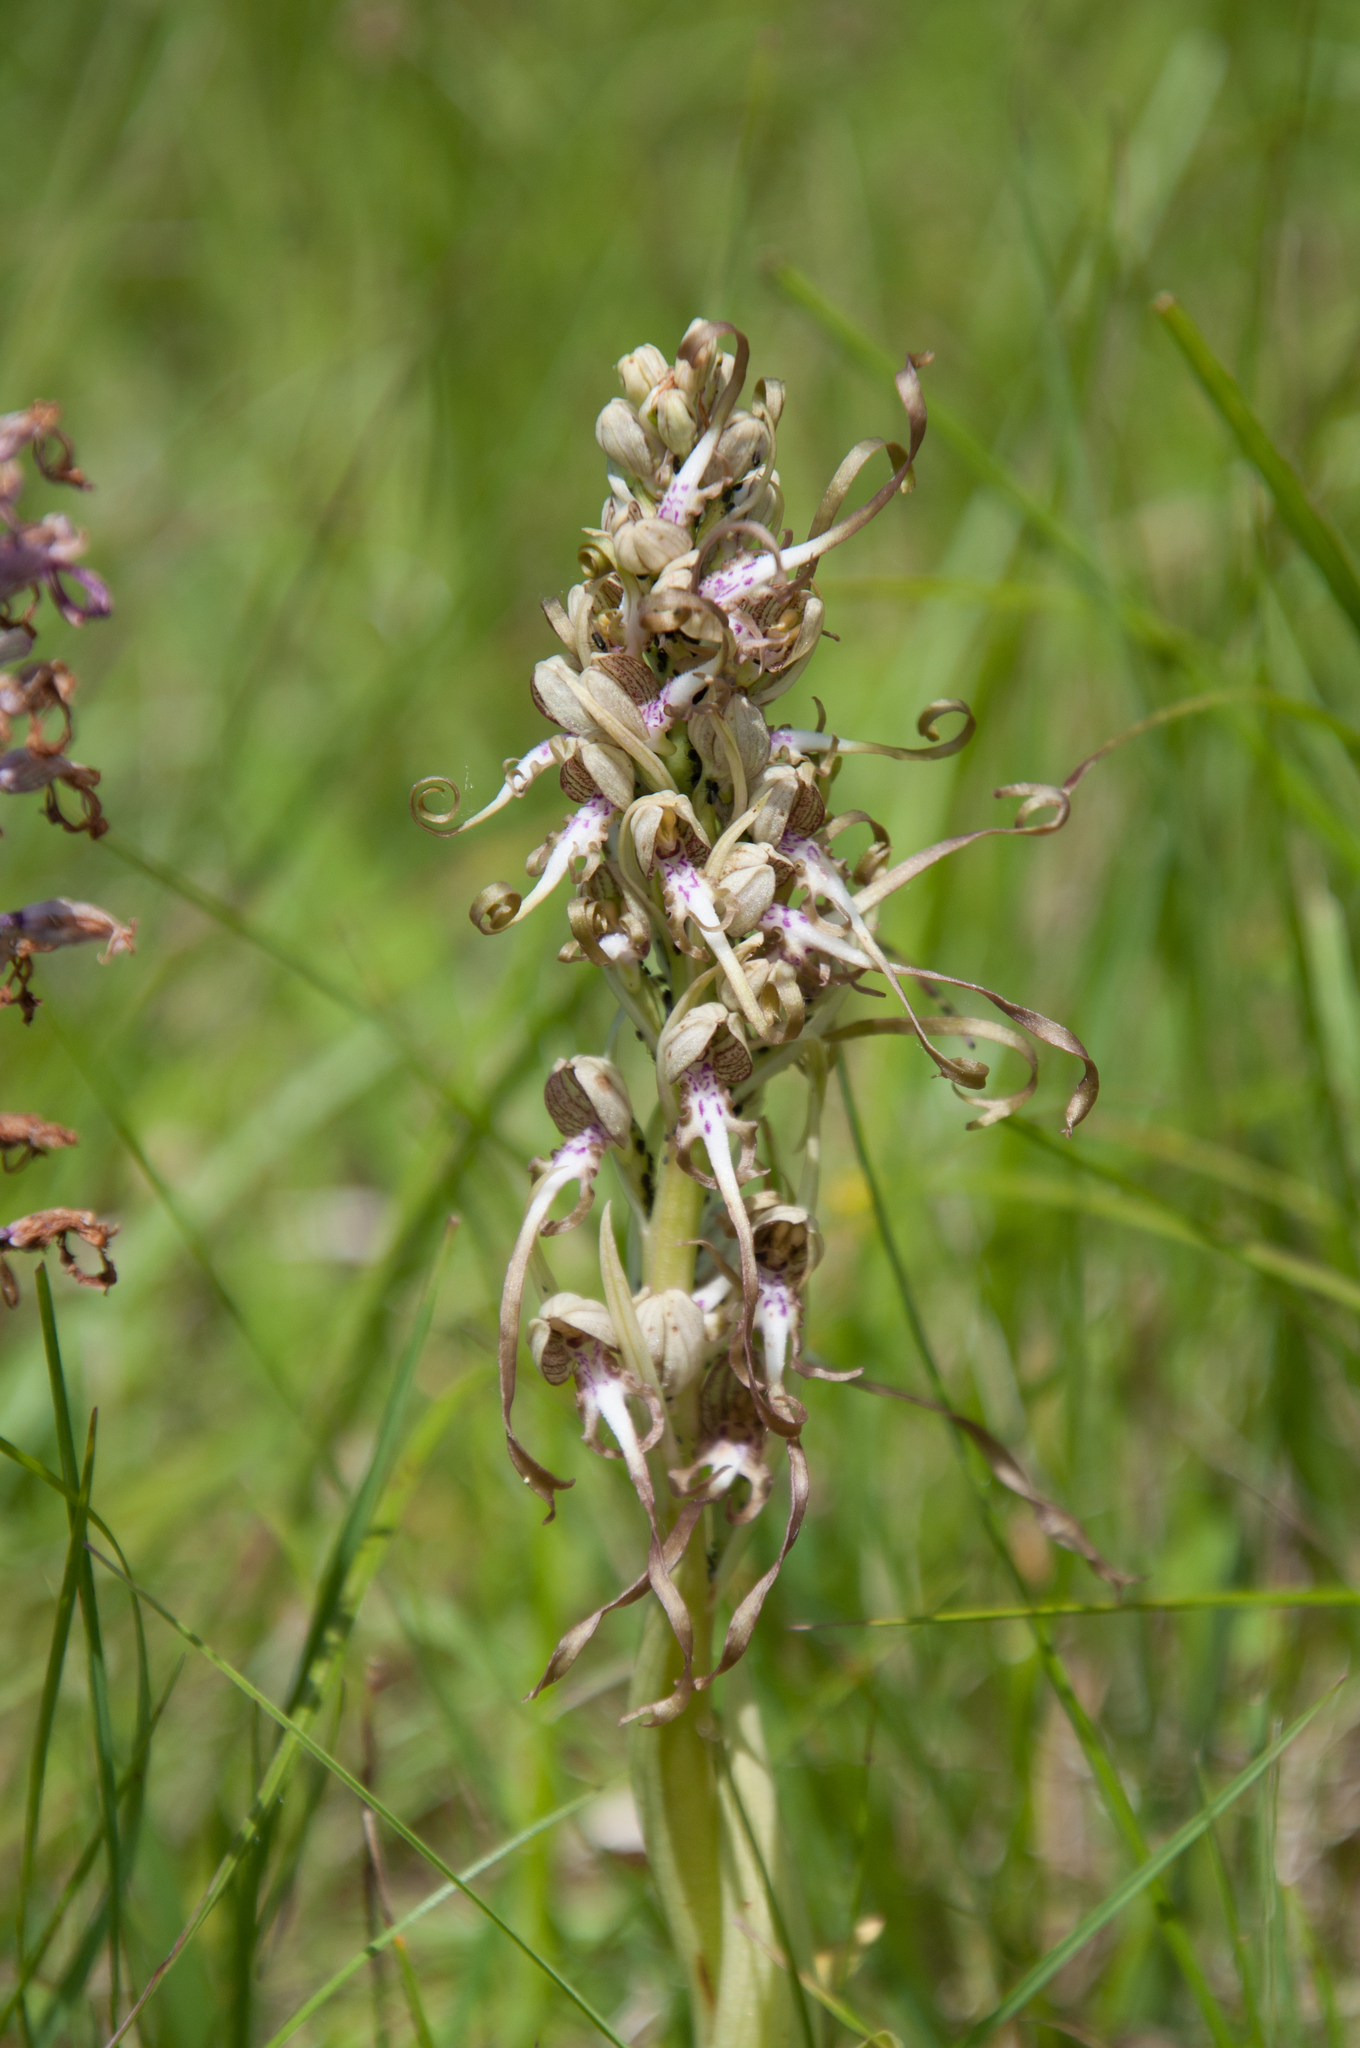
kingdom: Plantae
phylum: Tracheophyta
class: Liliopsida
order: Asparagales
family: Orchidaceae
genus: Himantoglossum
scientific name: Himantoglossum hircinum
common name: Lizard orchid
